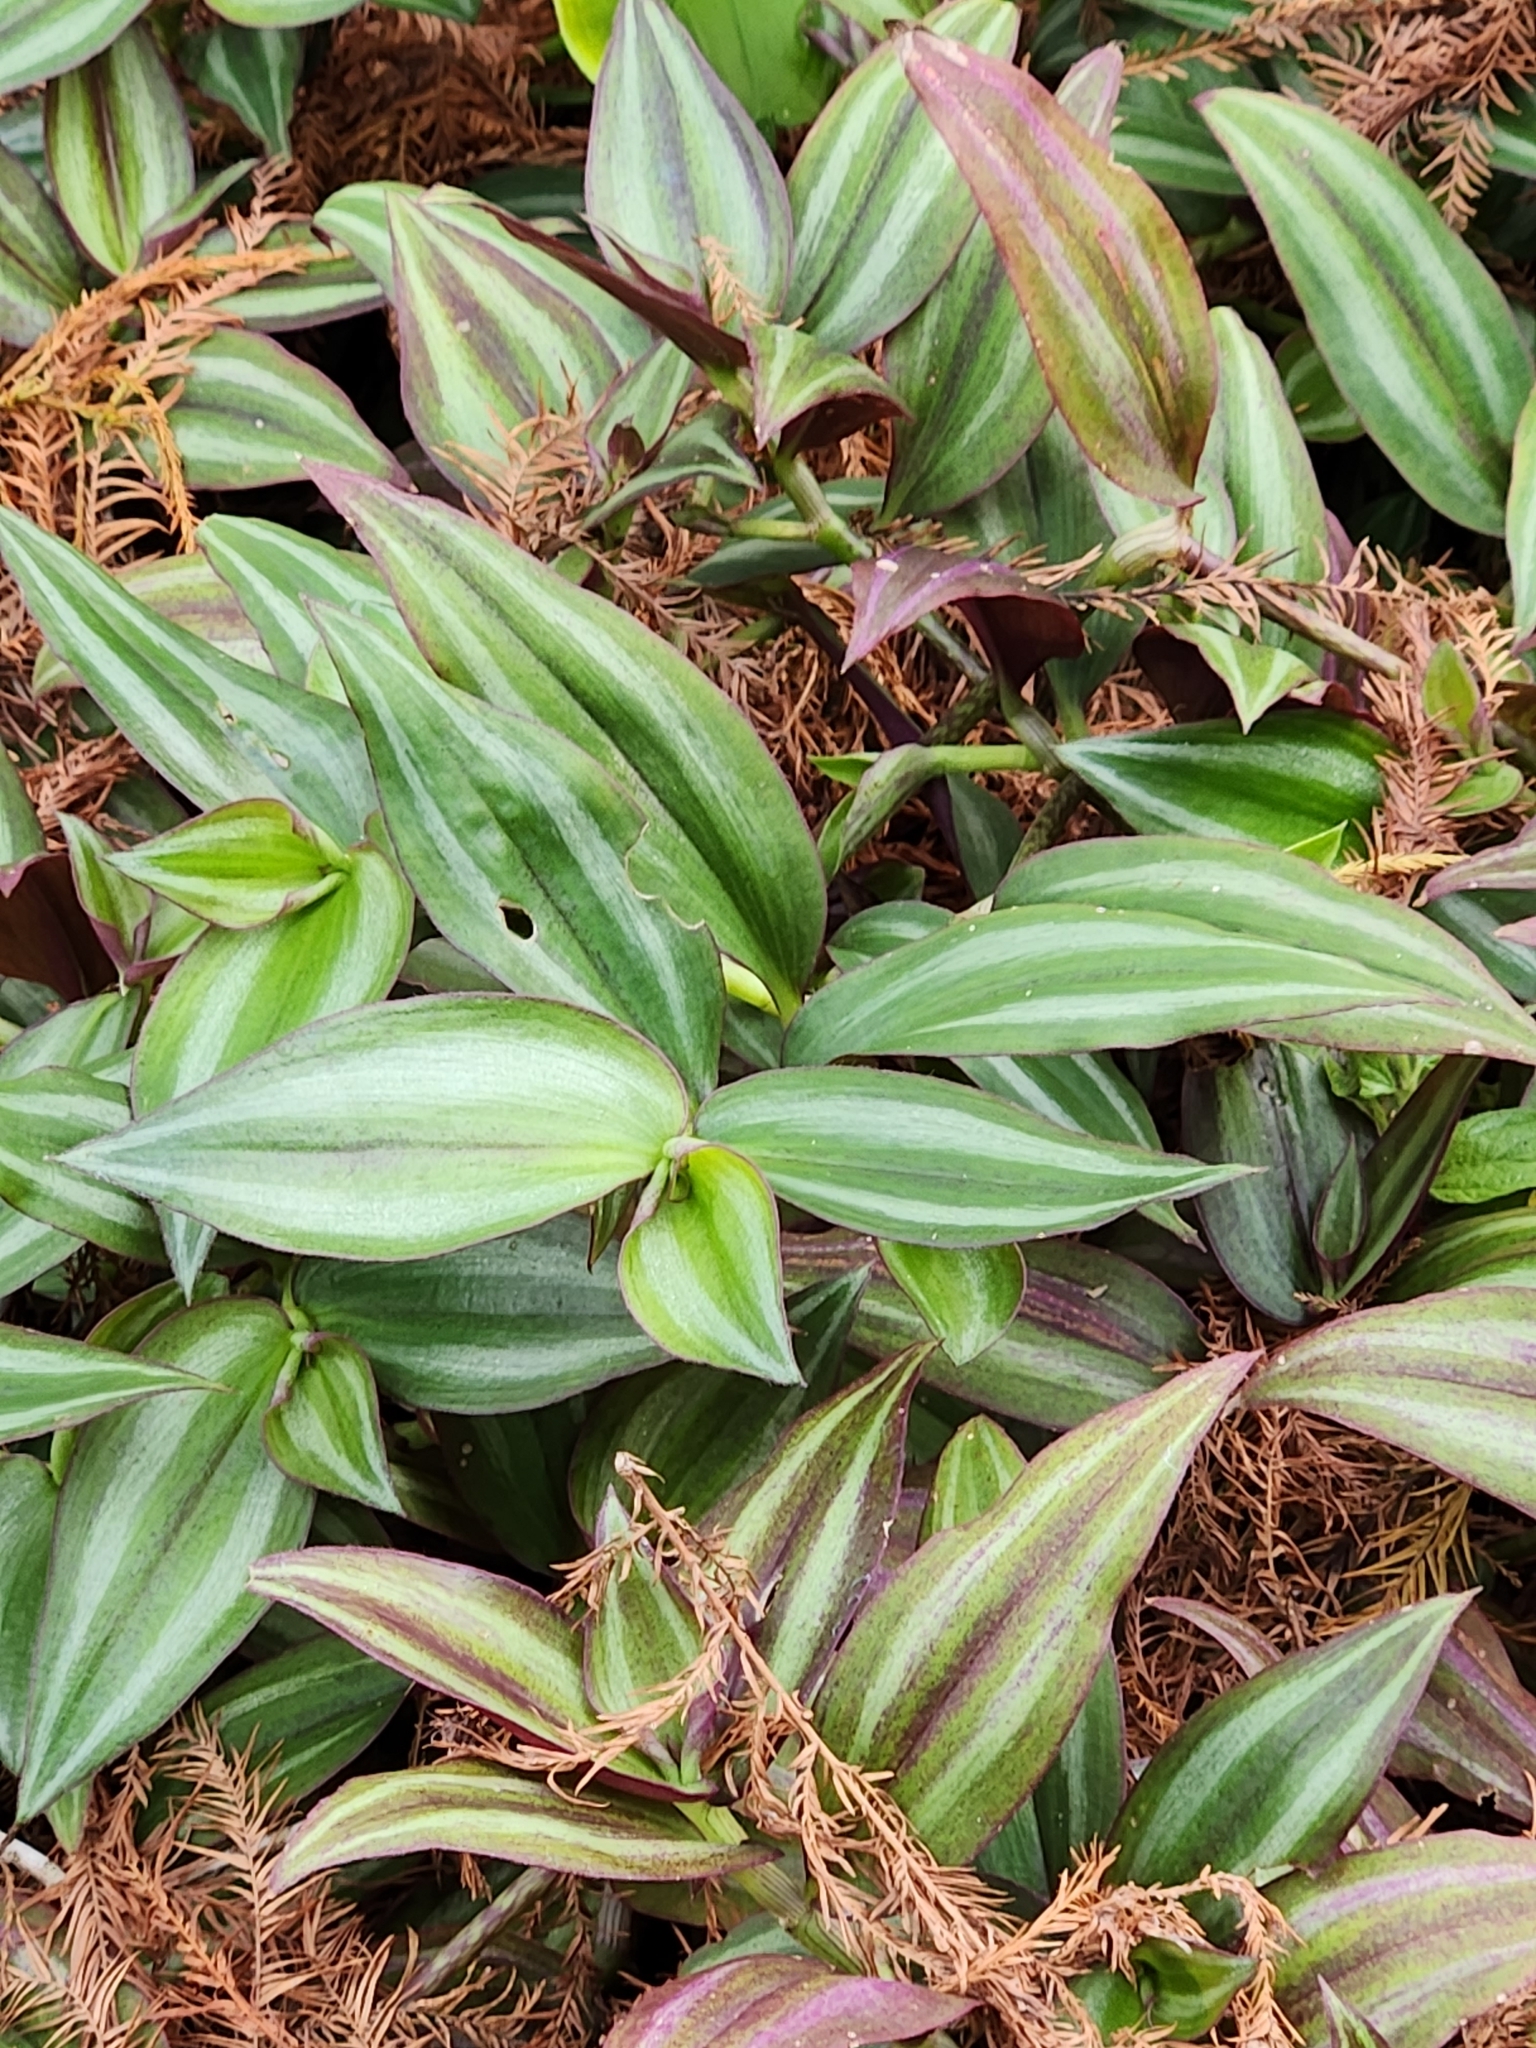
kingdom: Plantae
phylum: Tracheophyta
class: Liliopsida
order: Commelinales
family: Commelinaceae
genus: Tradescantia
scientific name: Tradescantia zebrina
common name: Inchplant
